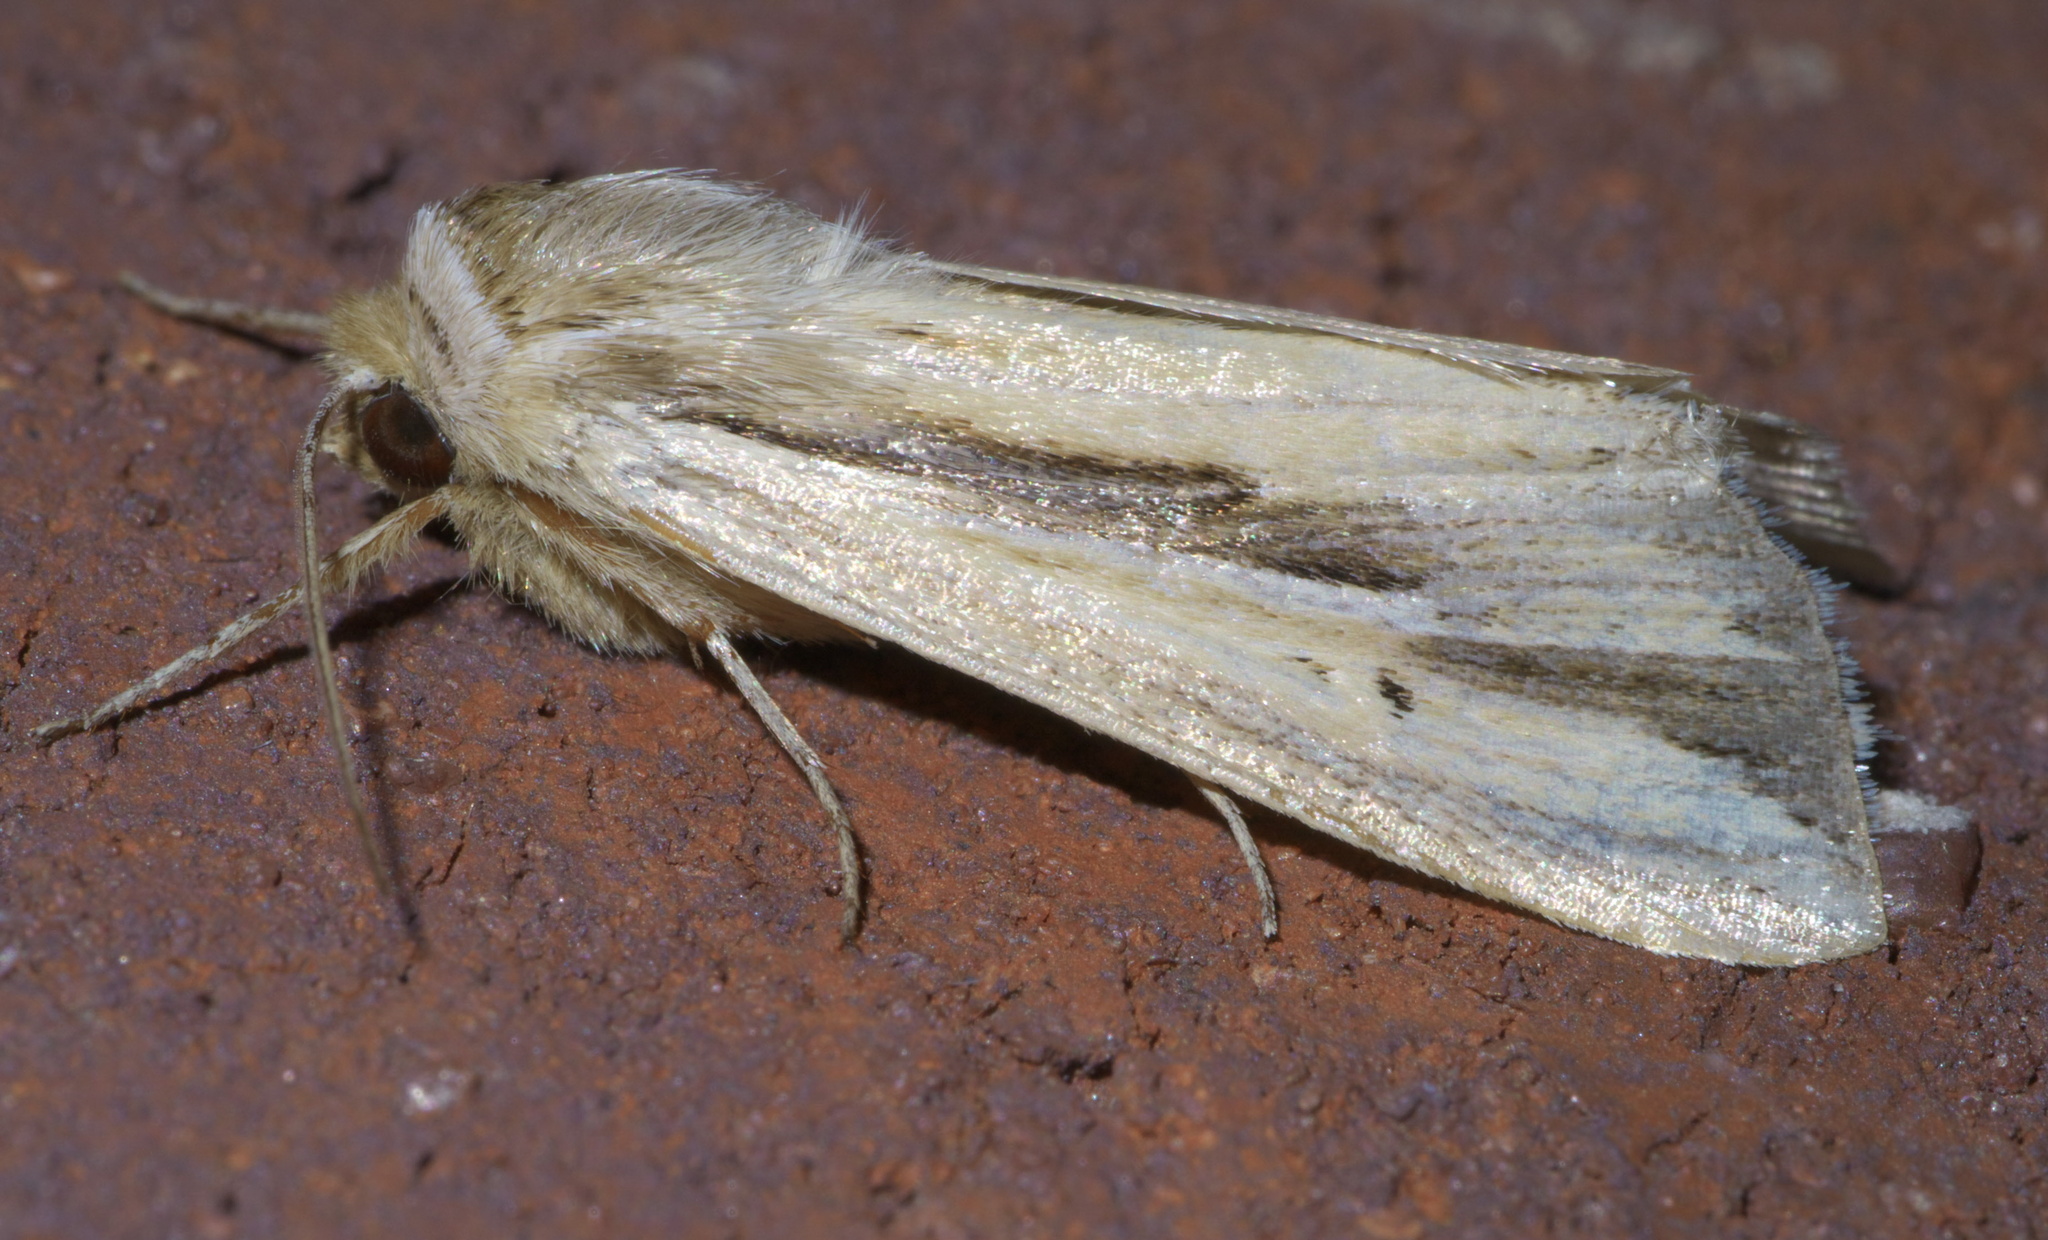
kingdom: Animalia
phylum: Arthropoda
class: Insecta
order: Lepidoptera
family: Noctuidae
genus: Dargida
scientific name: Dargida diffusa
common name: Wheat head armyworm
